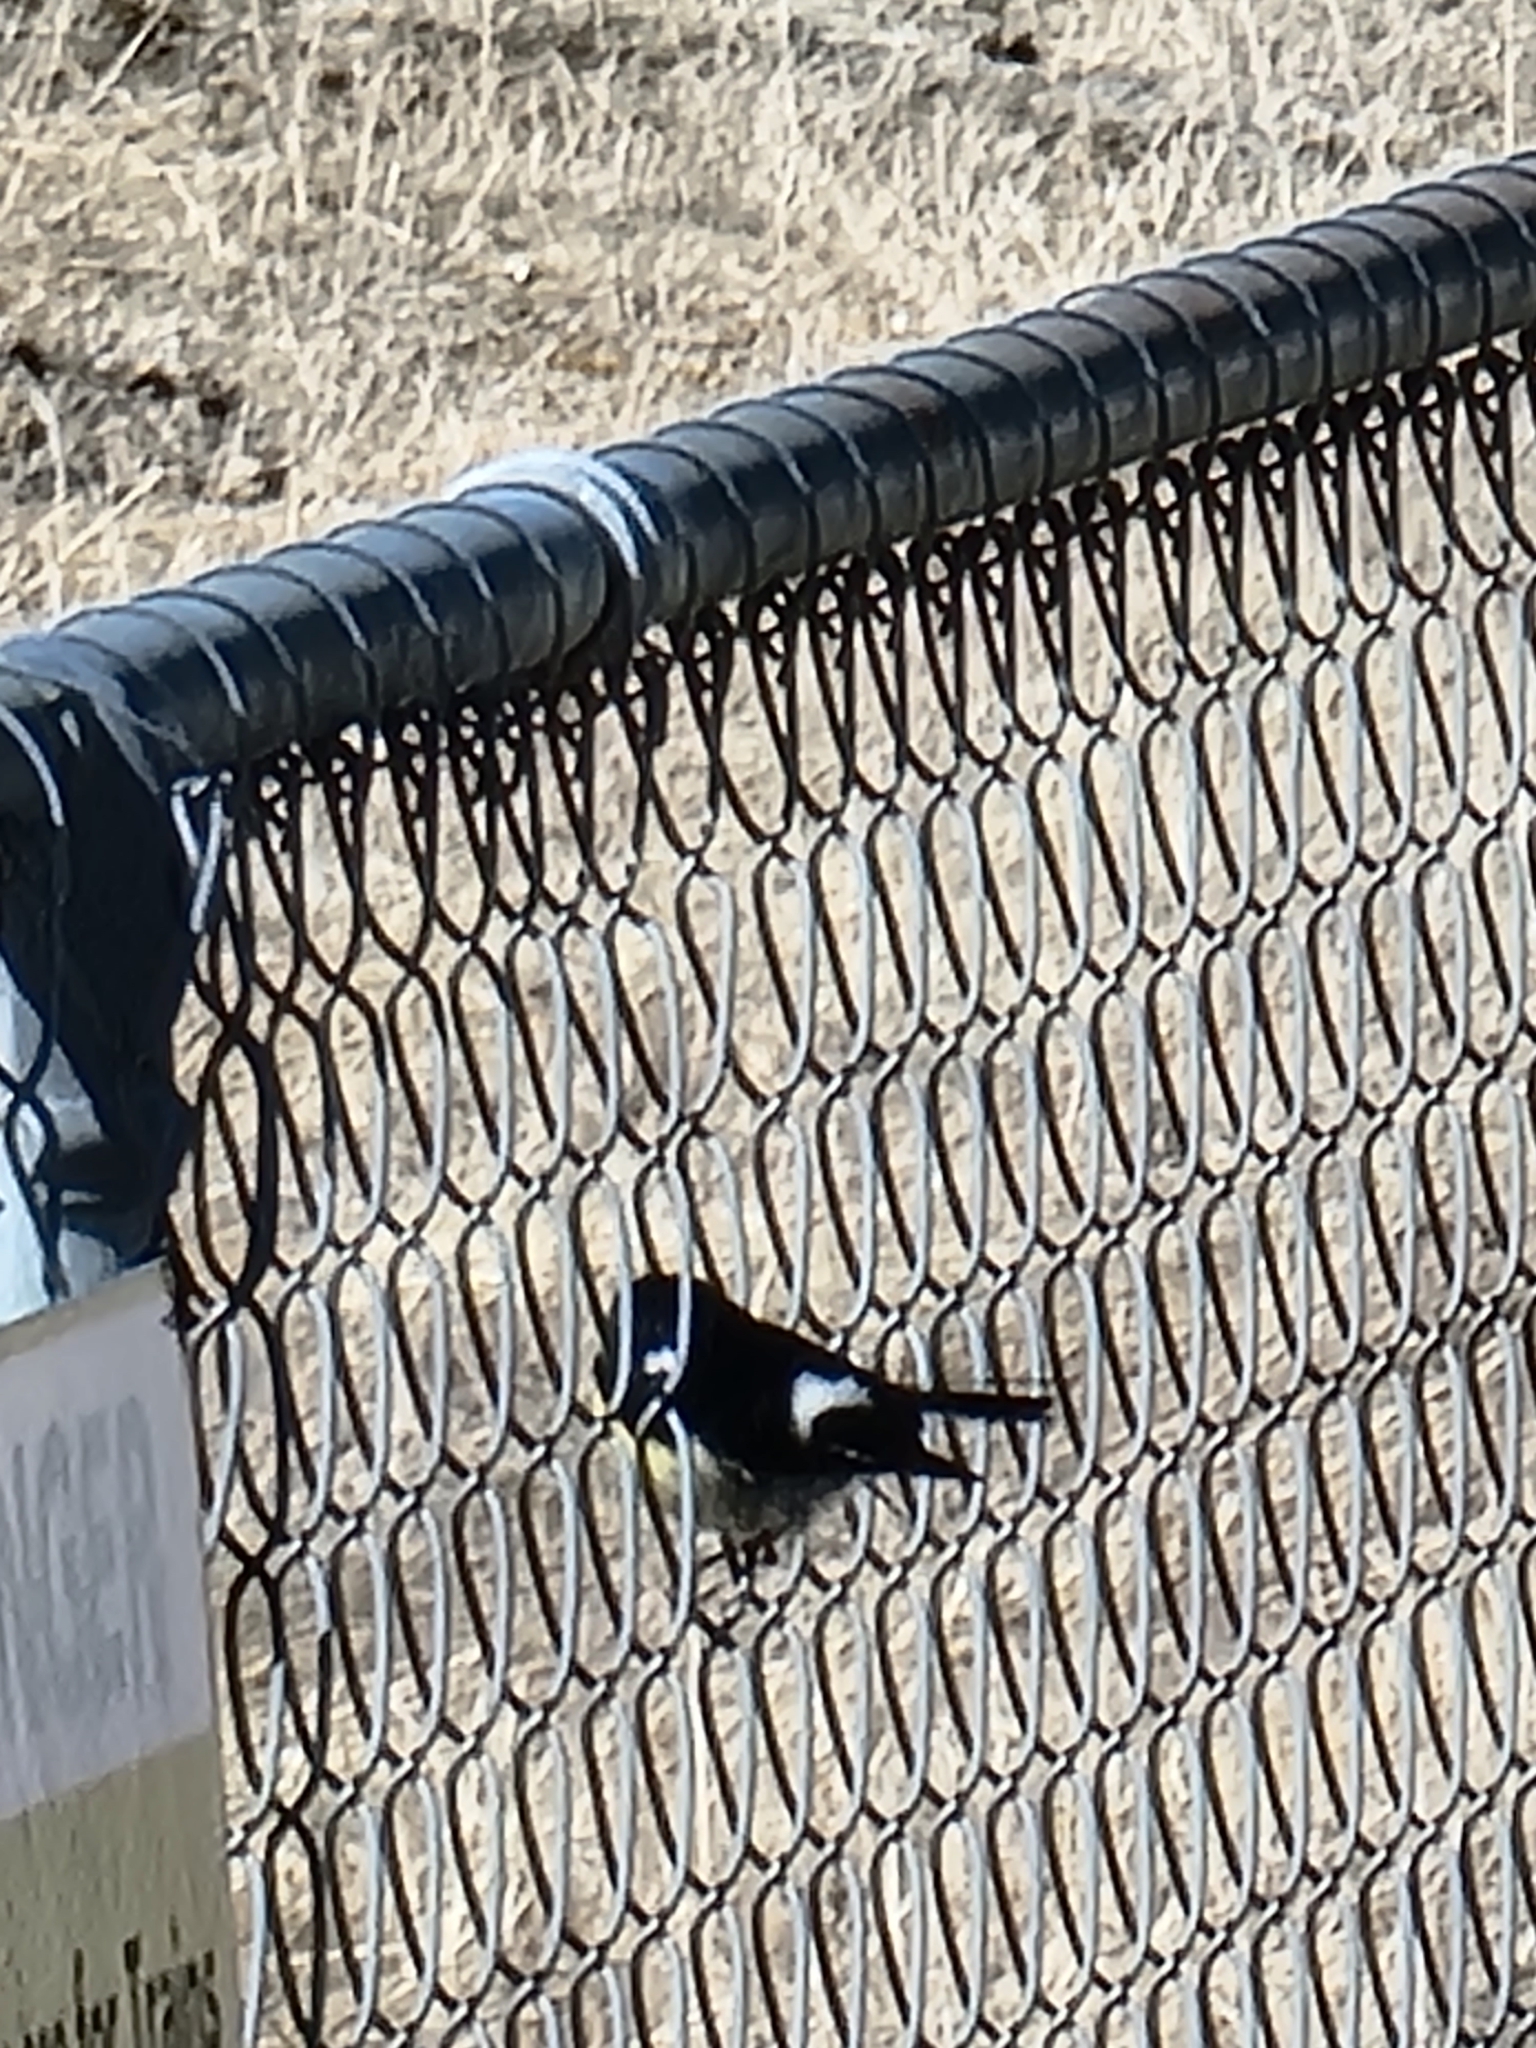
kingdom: Animalia
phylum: Chordata
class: Aves
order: Passeriformes
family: Petroicidae
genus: Petroica
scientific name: Petroica macrocephala
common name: Tomtit
